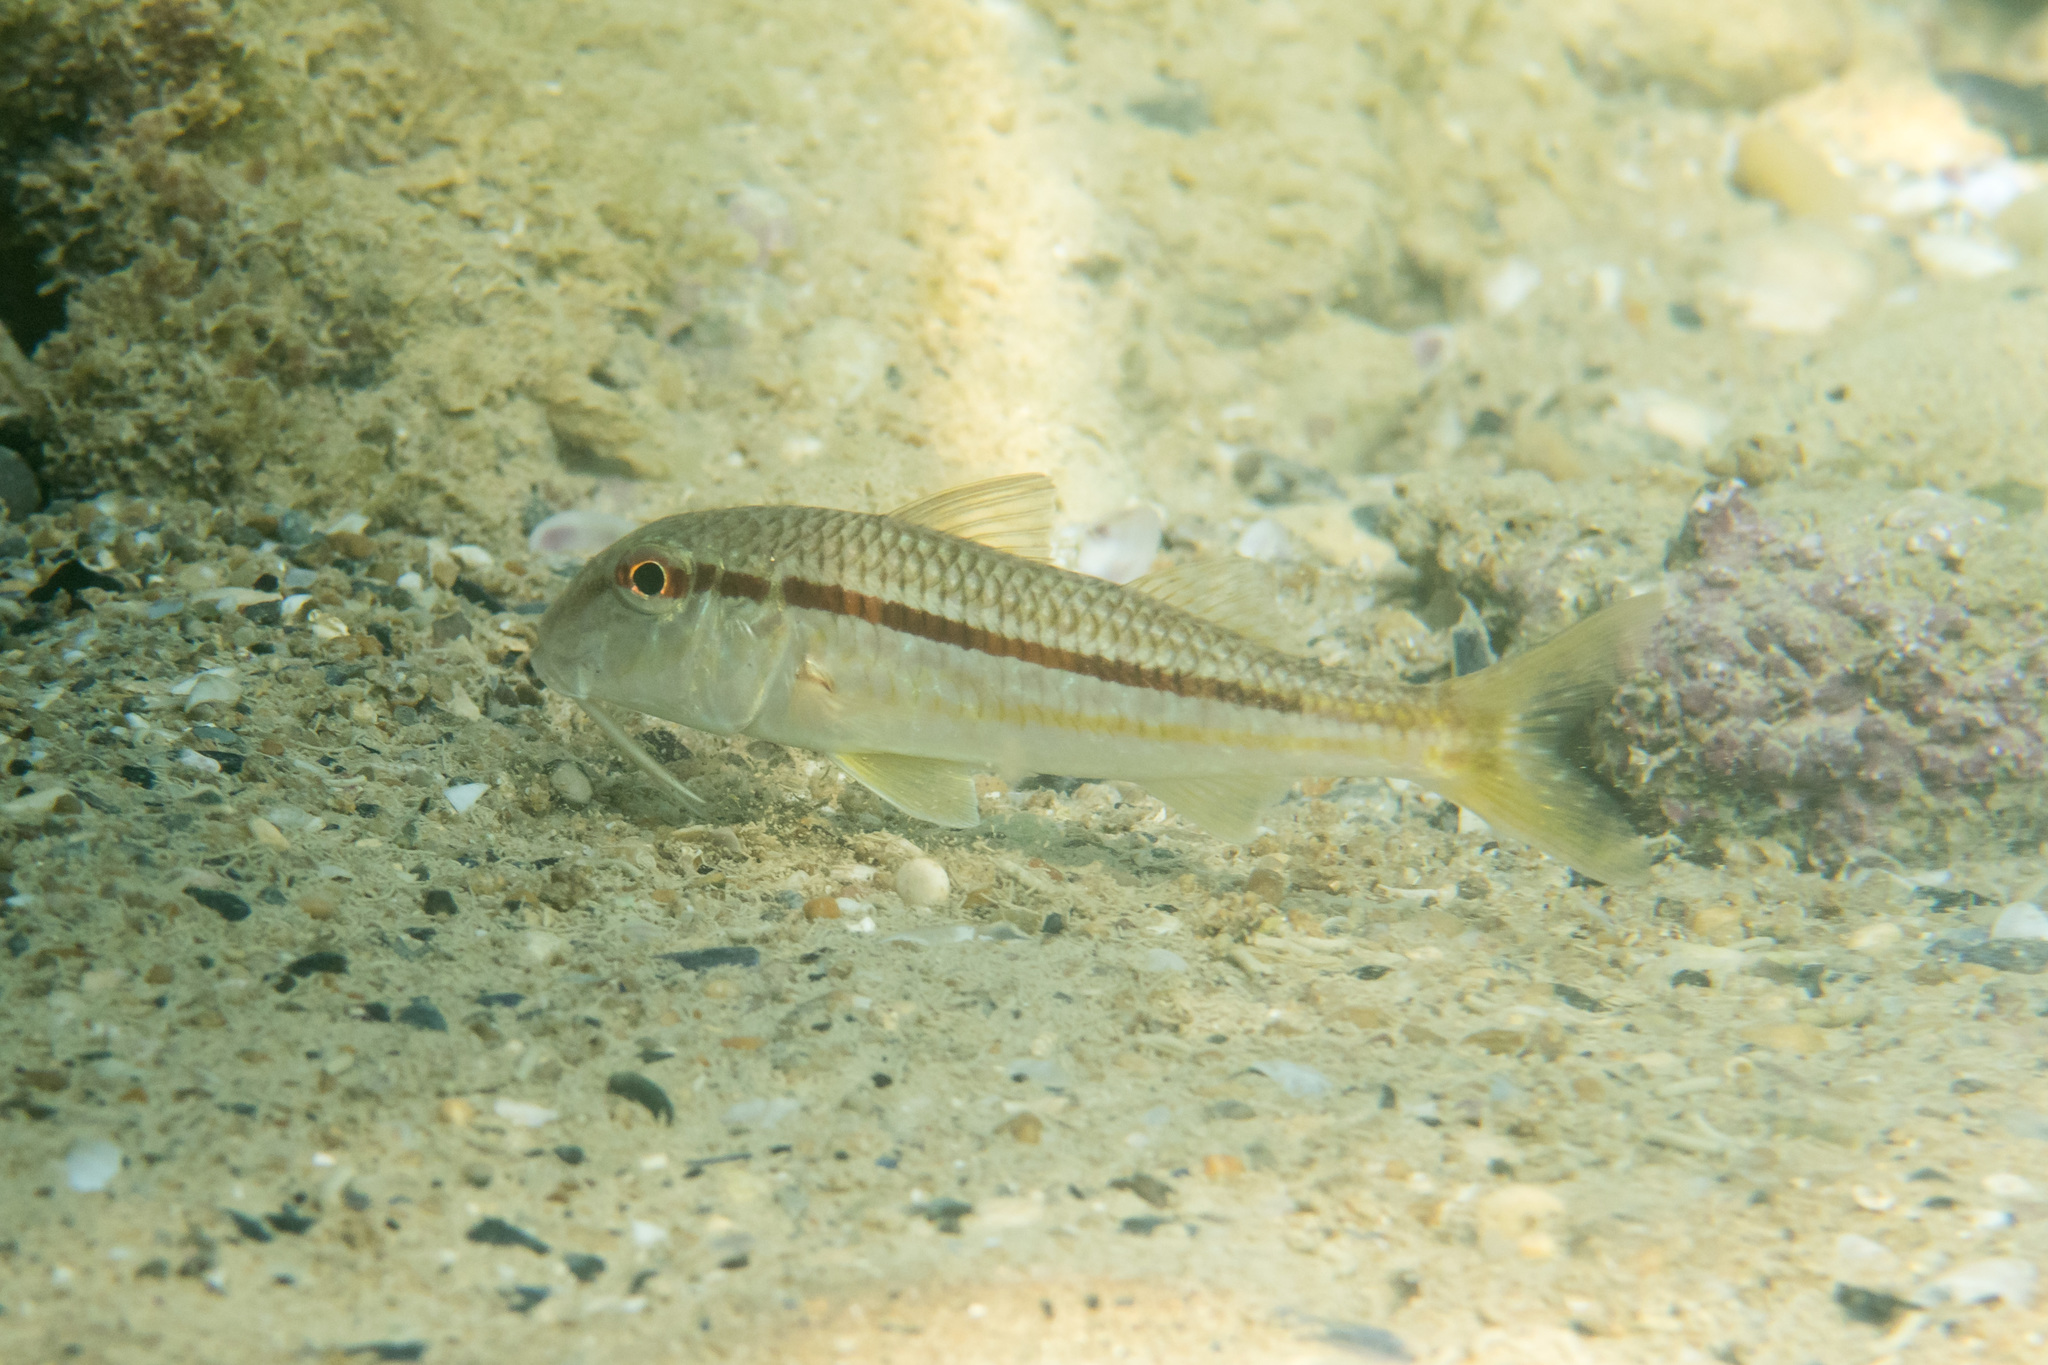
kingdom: Animalia
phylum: Chordata
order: Perciformes
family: Mullidae
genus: Mullus
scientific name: Mullus barbatus
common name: Blunt-snouted mullet
